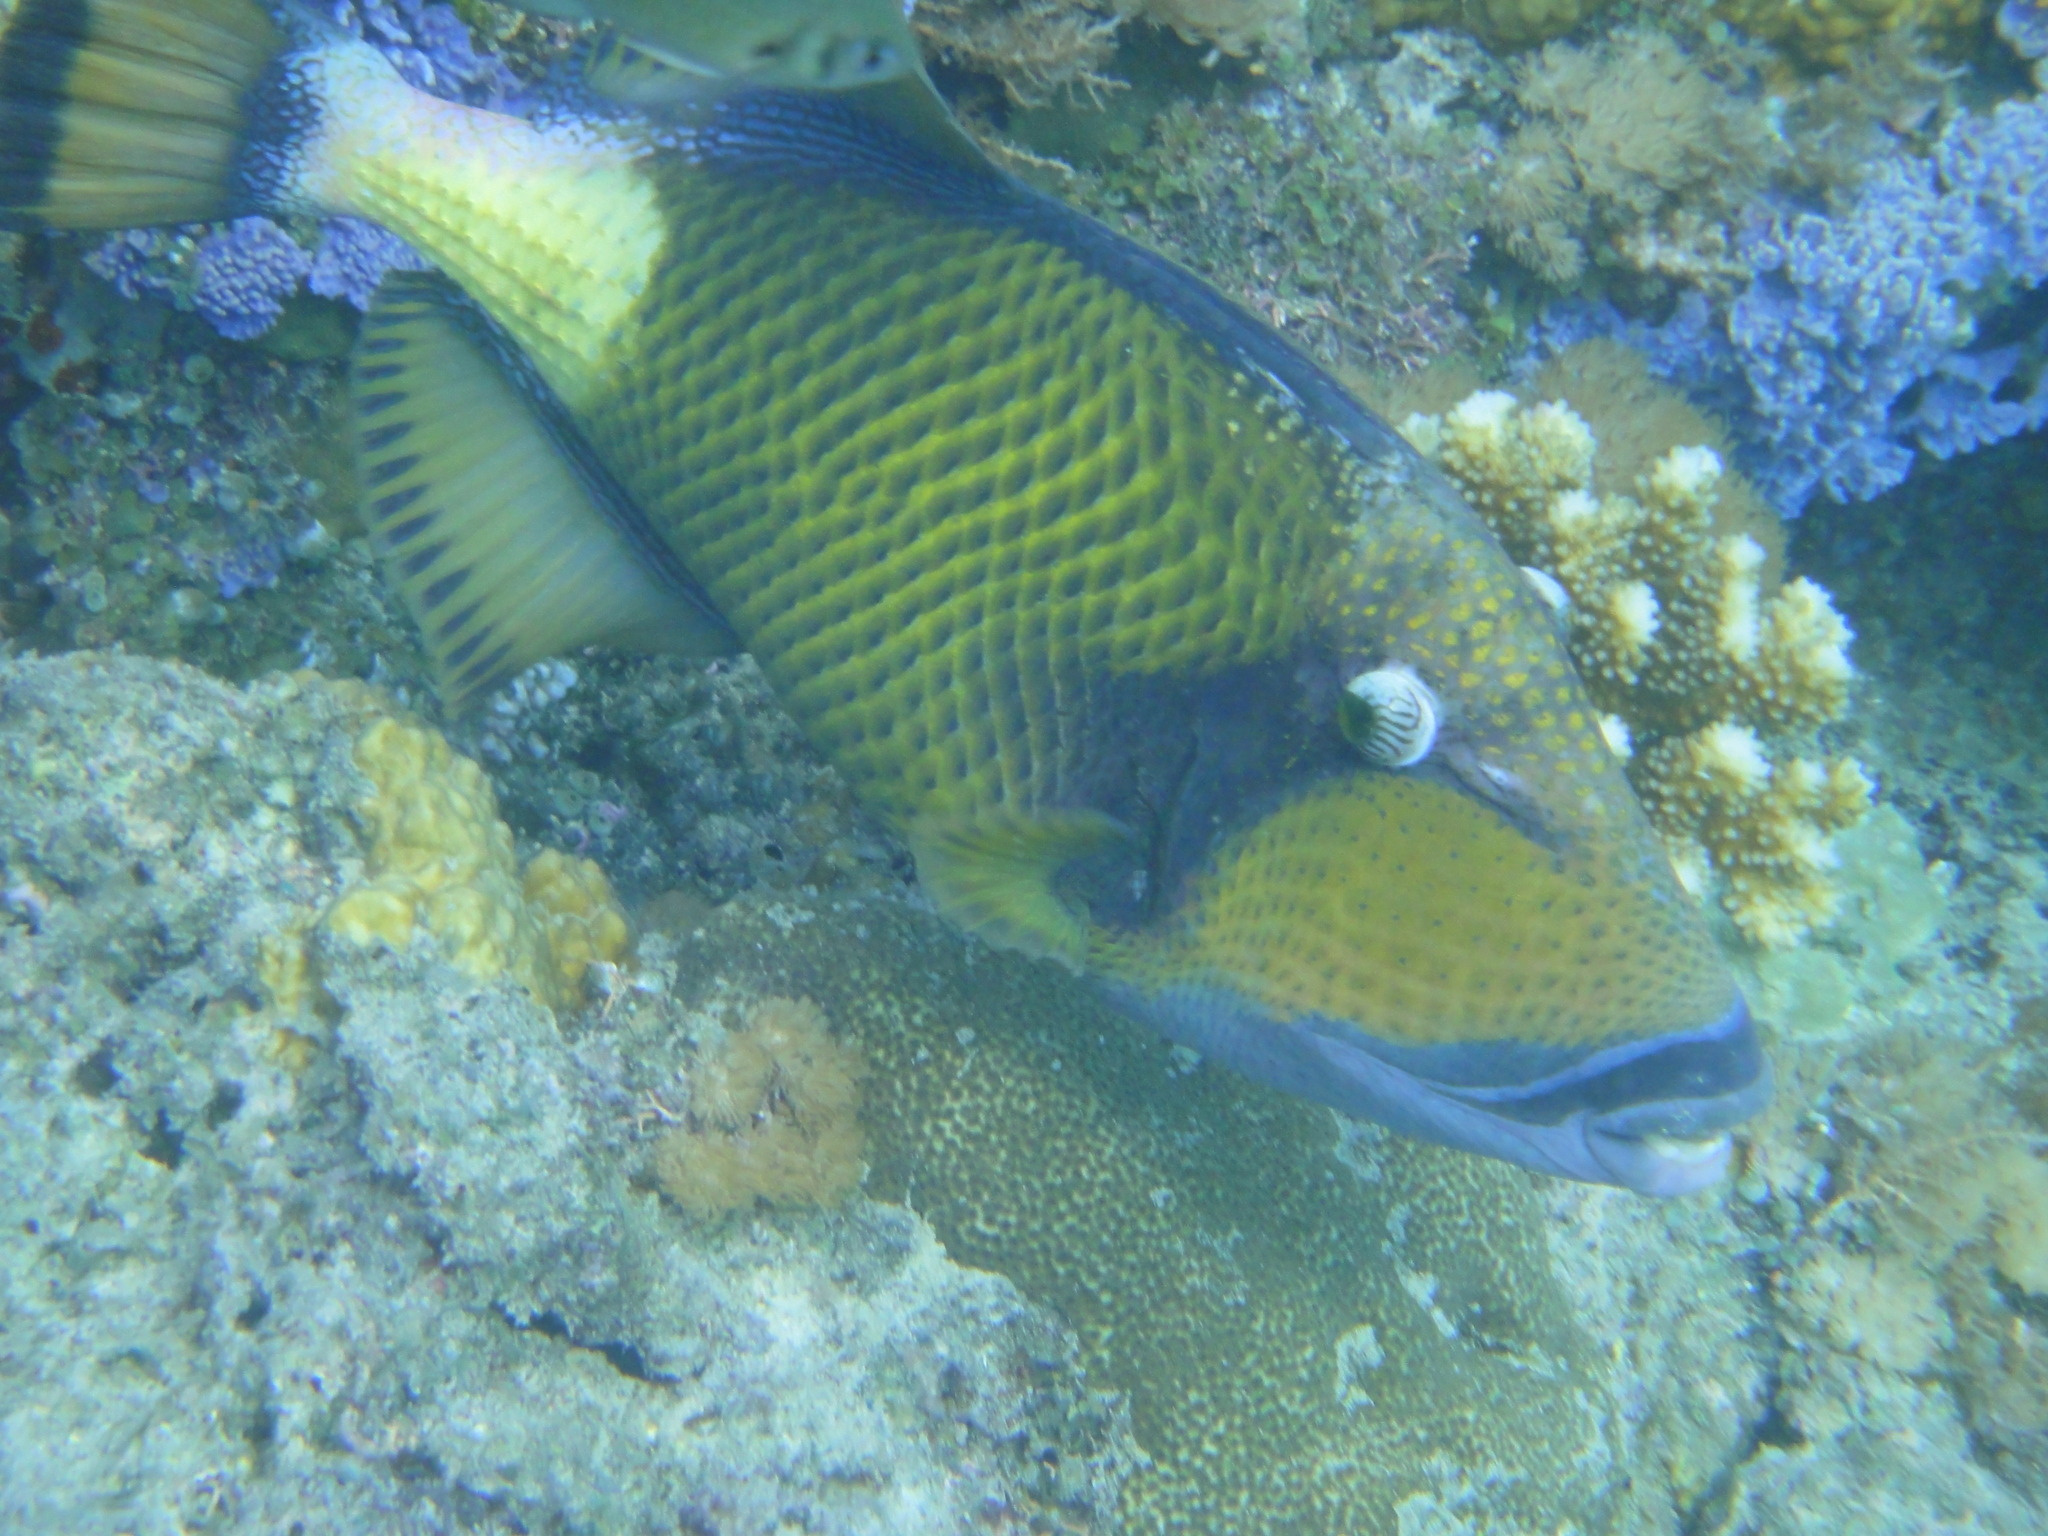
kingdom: Animalia
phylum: Chordata
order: Tetraodontiformes
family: Balistidae
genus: Balistoides
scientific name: Balistoides viridescens
